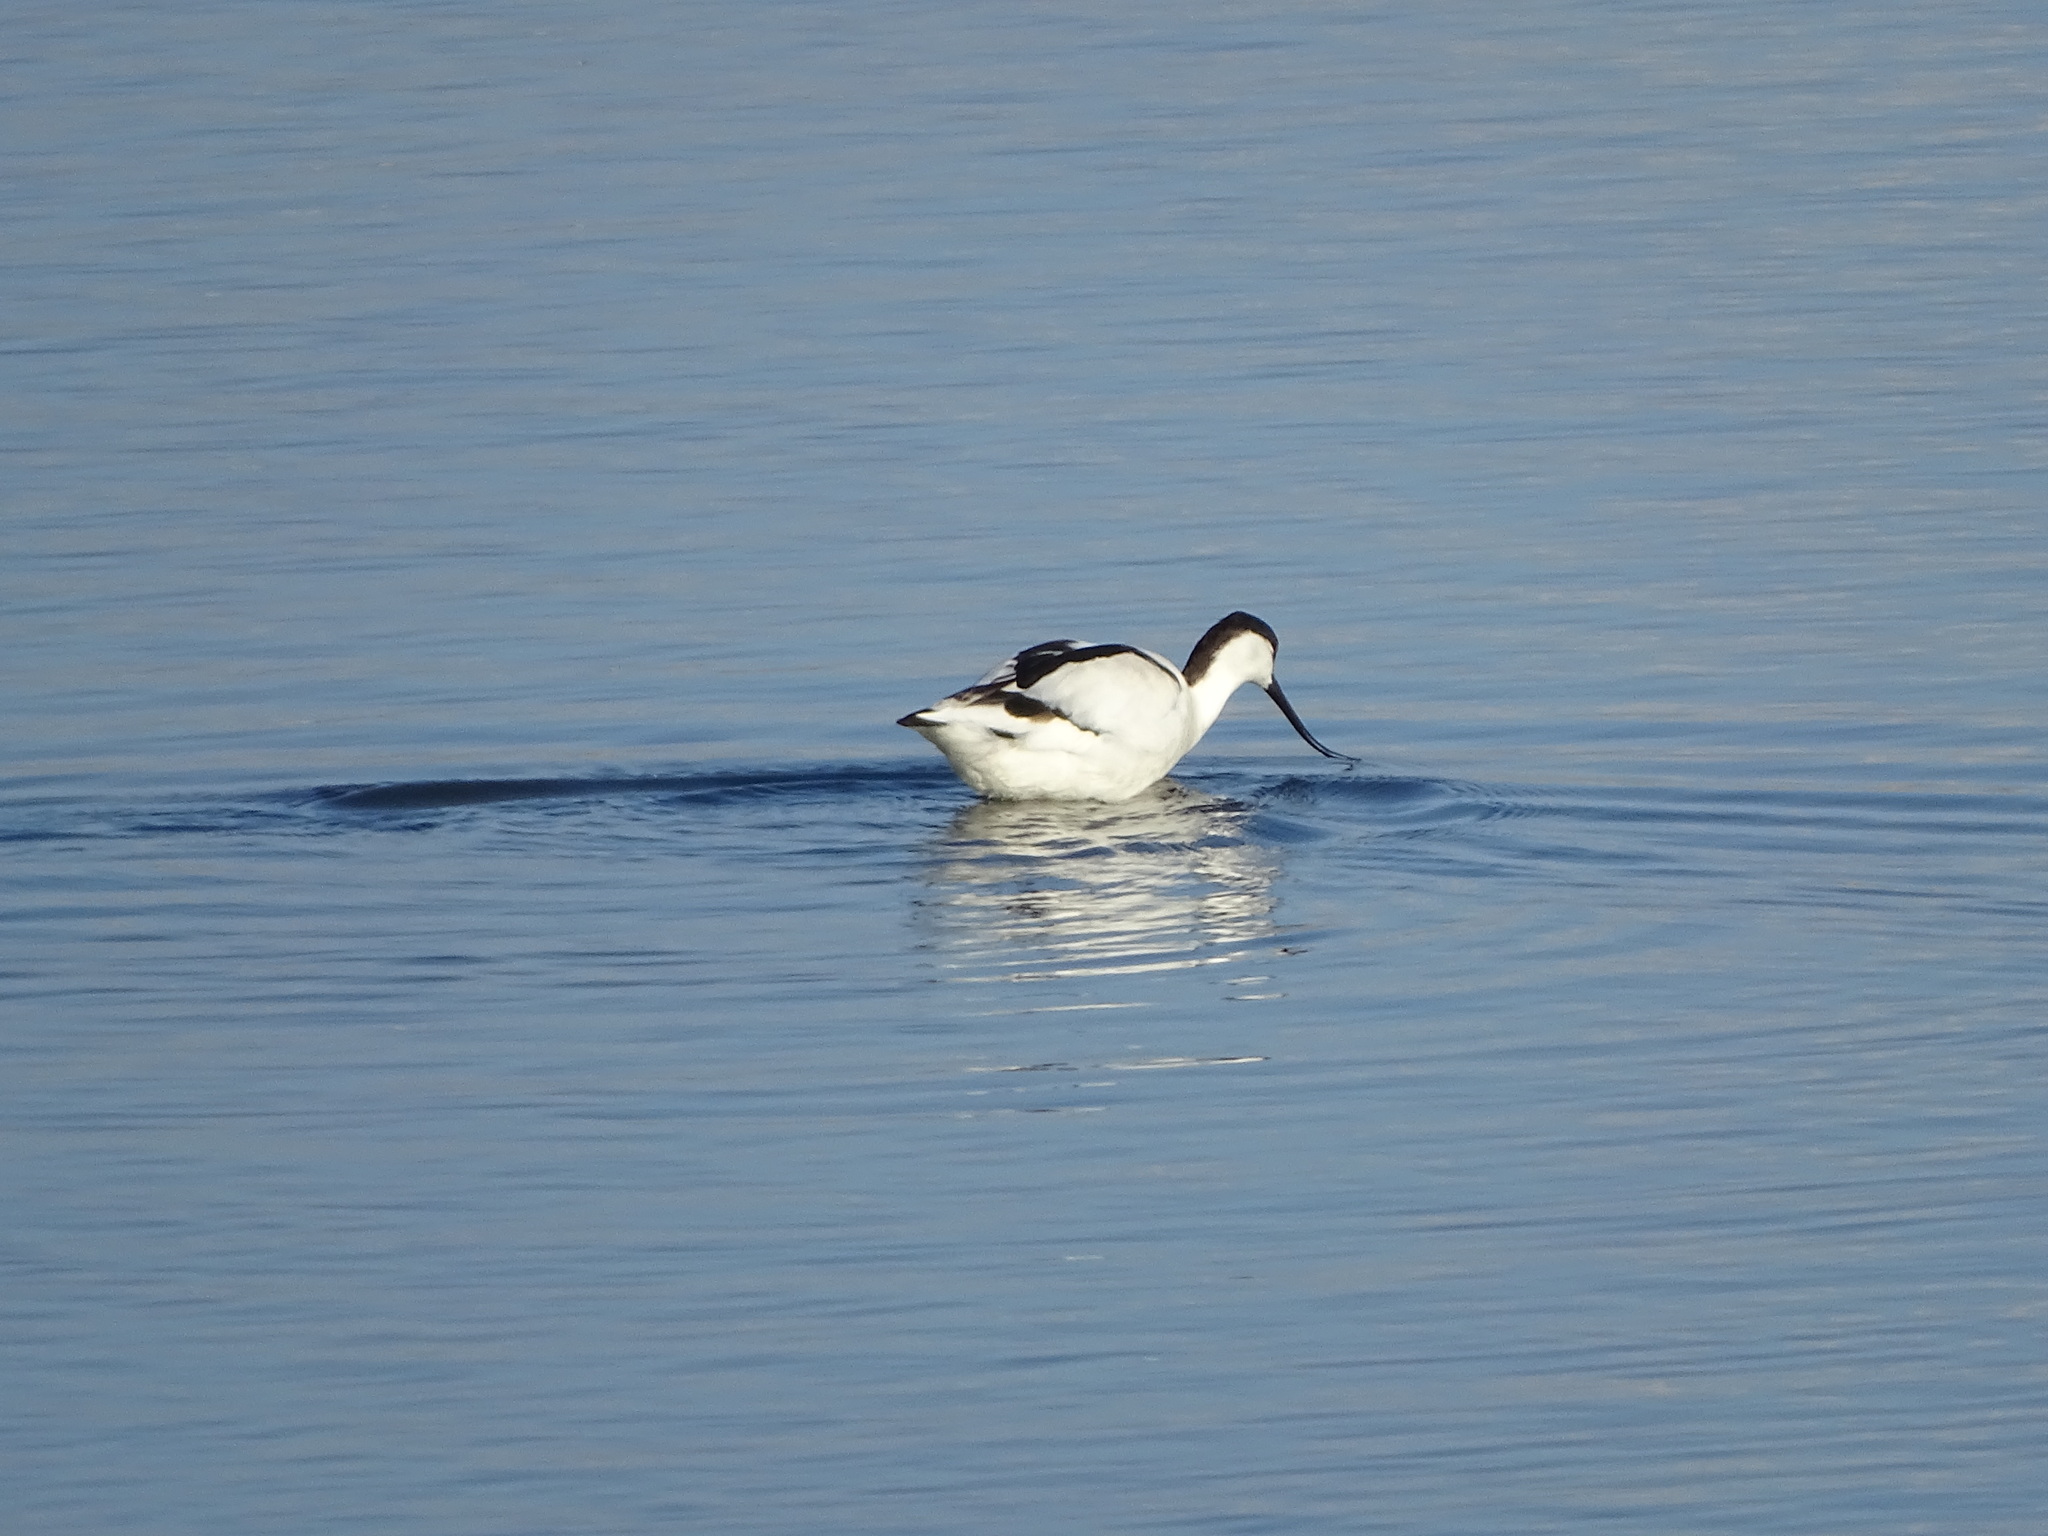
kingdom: Animalia
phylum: Chordata
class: Aves
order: Charadriiformes
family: Recurvirostridae
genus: Recurvirostra
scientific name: Recurvirostra avosetta
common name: Pied avocet
